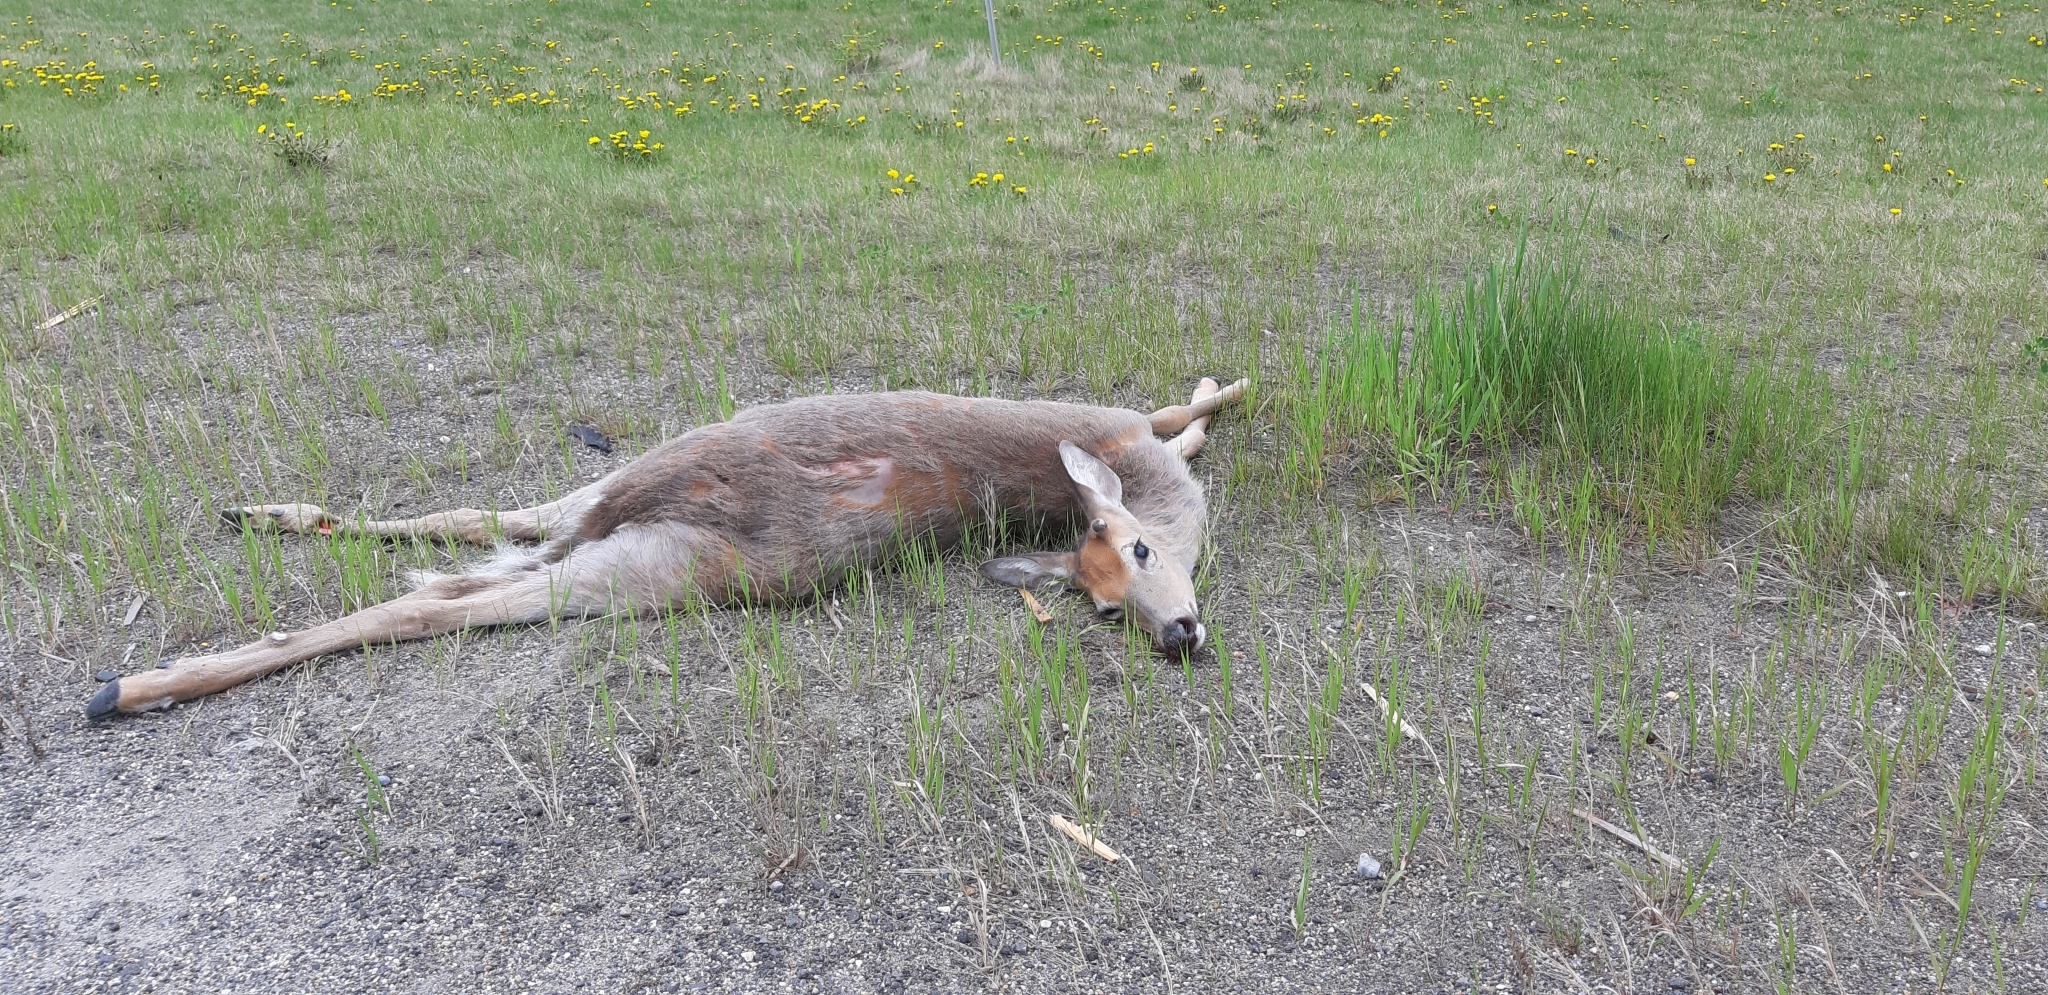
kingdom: Animalia
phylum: Chordata
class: Mammalia
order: Artiodactyla
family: Cervidae
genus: Odocoileus
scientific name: Odocoileus virginianus
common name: White-tailed deer
